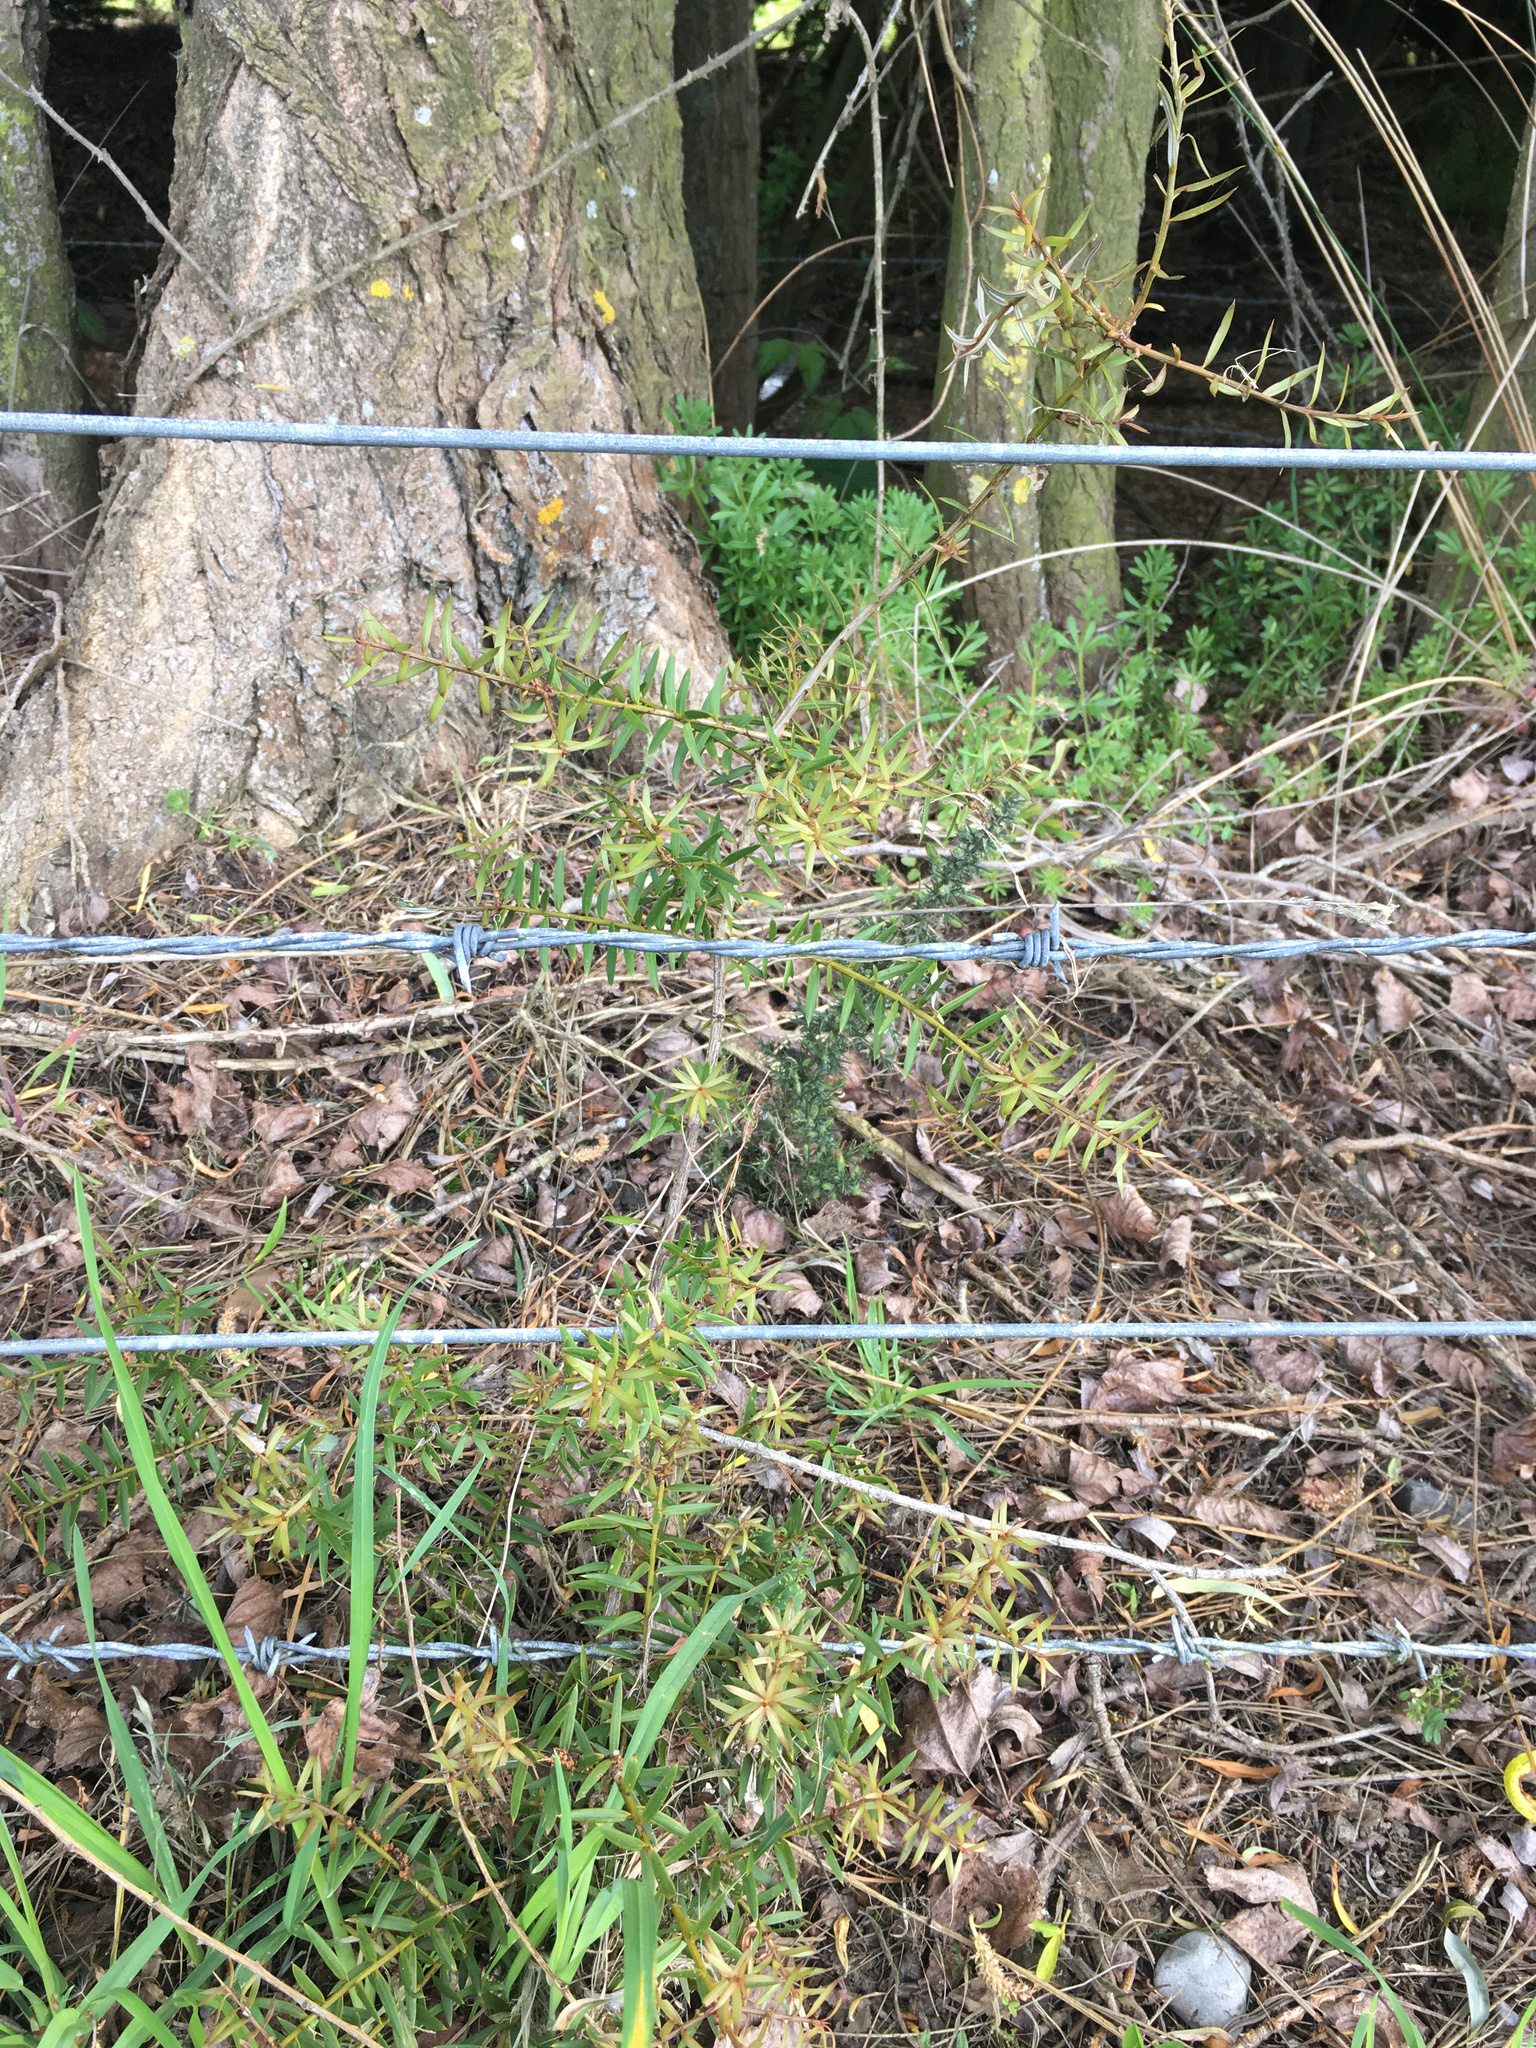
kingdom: Plantae
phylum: Tracheophyta
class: Pinopsida
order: Pinales
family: Podocarpaceae
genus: Podocarpus
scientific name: Podocarpus totara
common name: Totara
